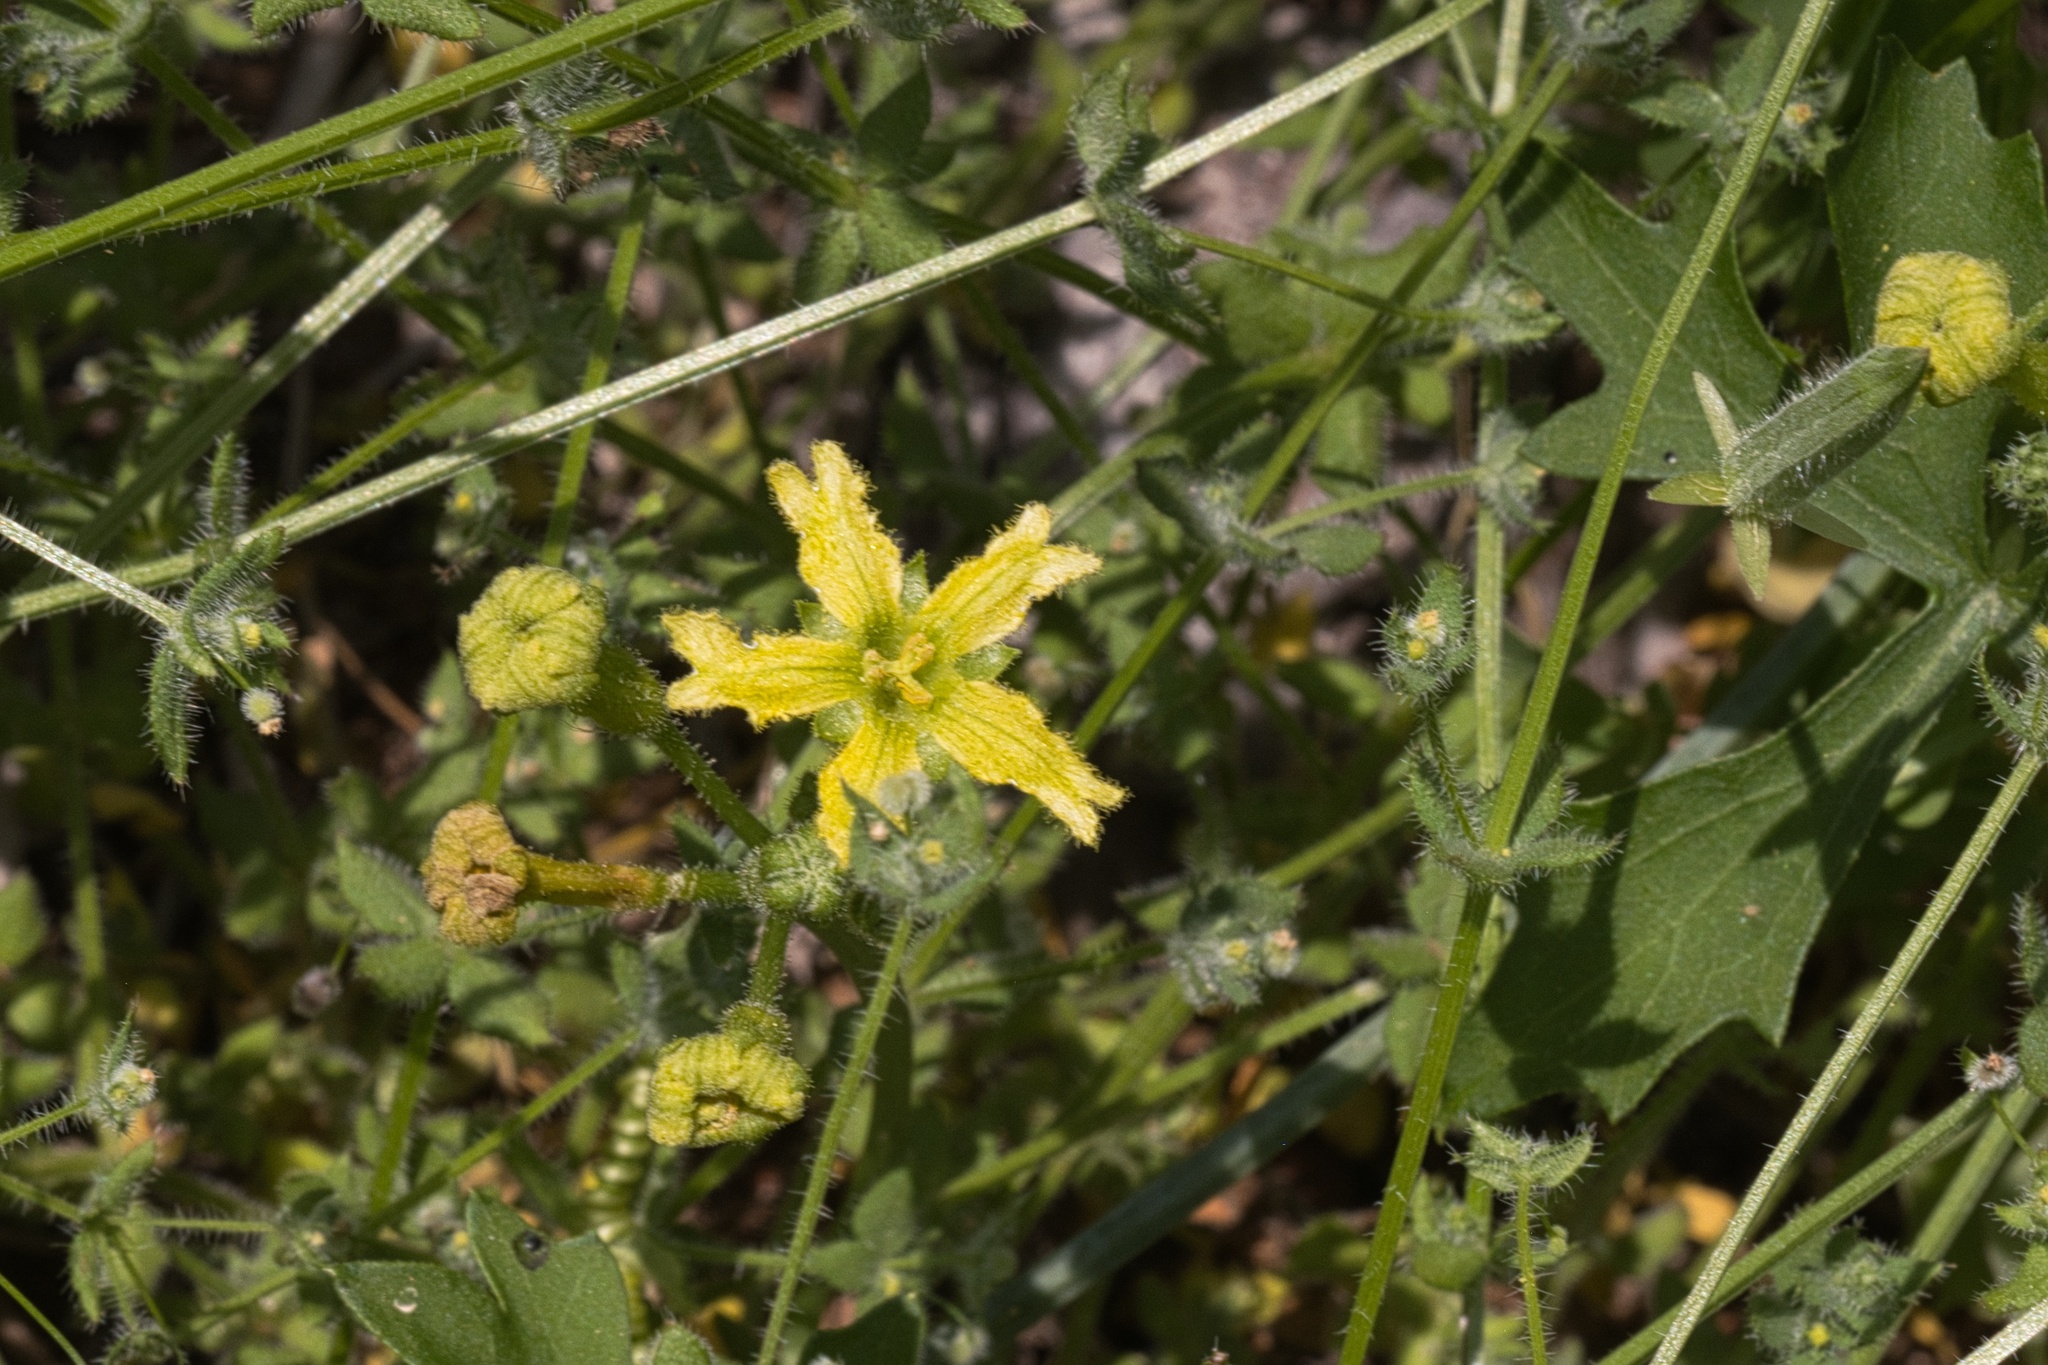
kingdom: Plantae
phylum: Tracheophyta
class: Magnoliopsida
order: Cucurbitales
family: Cucurbitaceae
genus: Ibervillea
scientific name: Ibervillea lindheimeri
